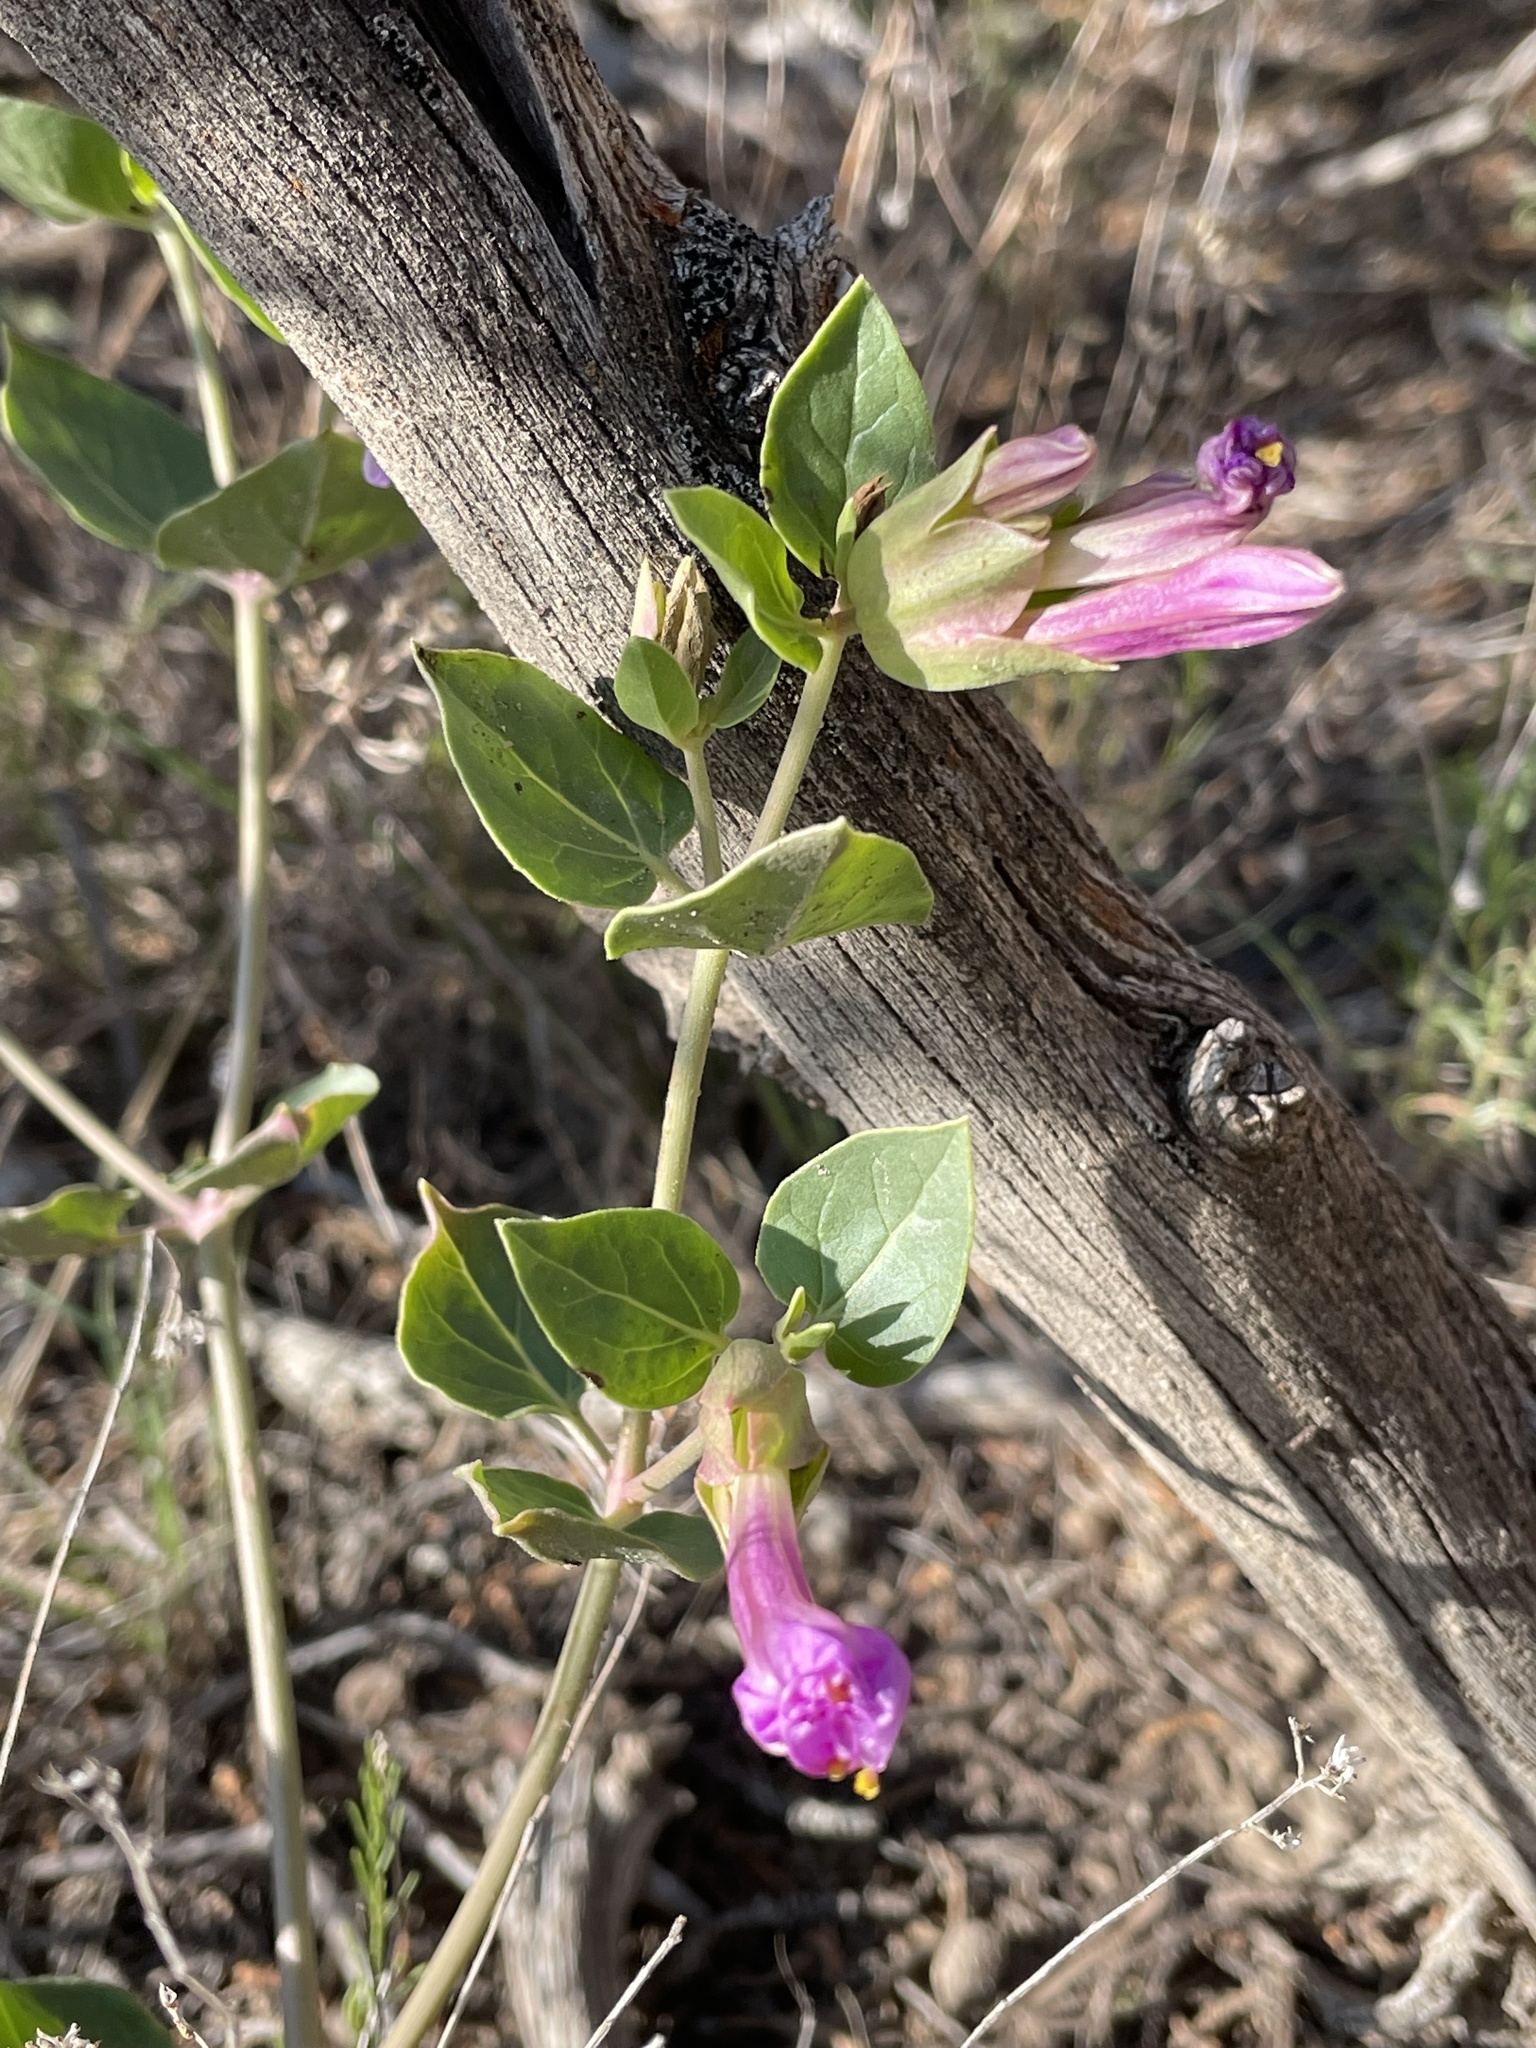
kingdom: Plantae
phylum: Tracheophyta
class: Magnoliopsida
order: Caryophyllales
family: Nyctaginaceae
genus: Mirabilis
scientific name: Mirabilis multiflora
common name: Froebel's four-o'clock
